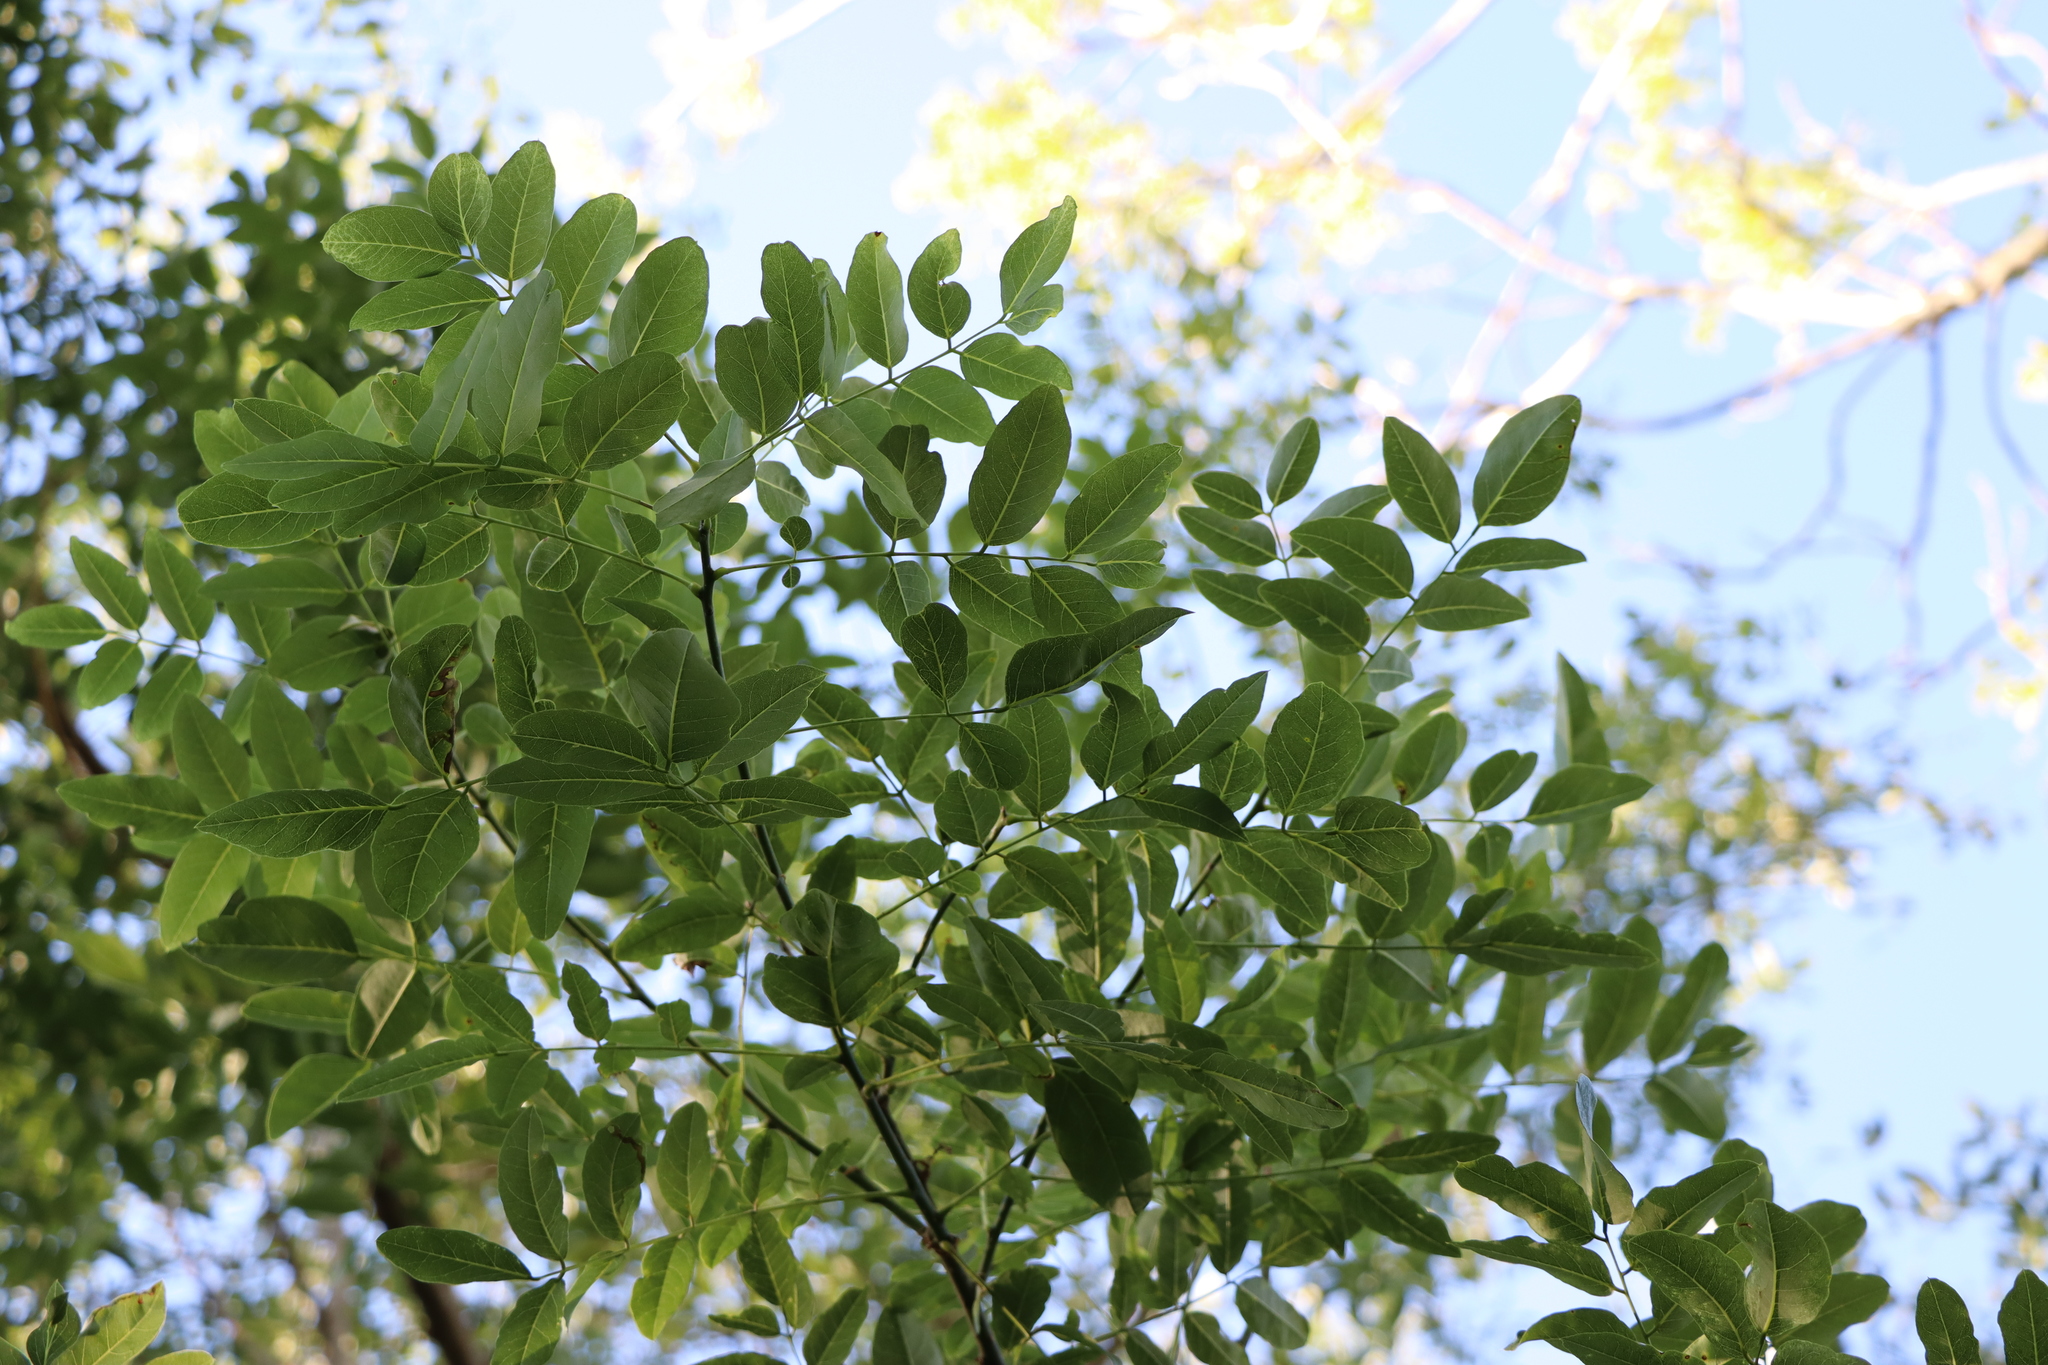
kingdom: Plantae
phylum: Tracheophyta
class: Magnoliopsida
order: Fabales
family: Fabaceae
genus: Poecilanthe
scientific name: Poecilanthe parviflora
